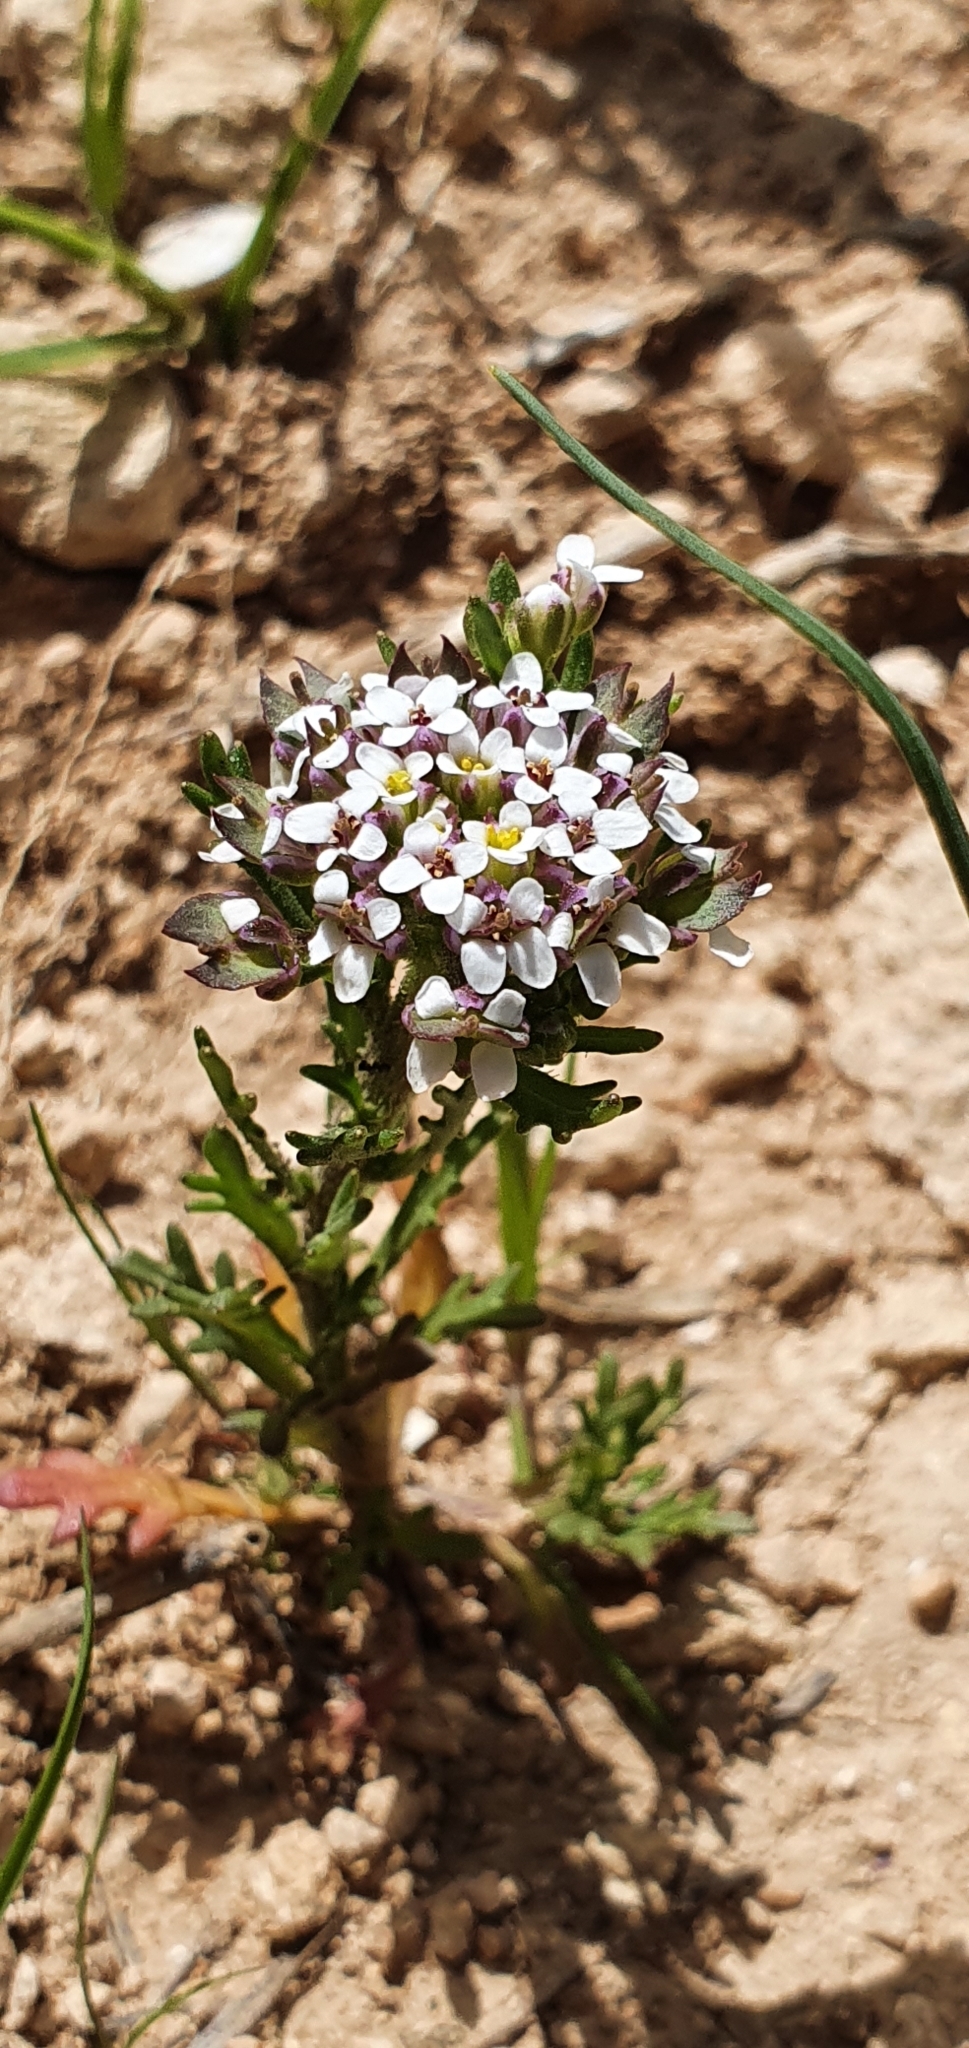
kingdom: Plantae
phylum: Tracheophyta
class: Magnoliopsida
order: Brassicales
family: Brassicaceae
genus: Iberis
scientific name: Iberis odorata
